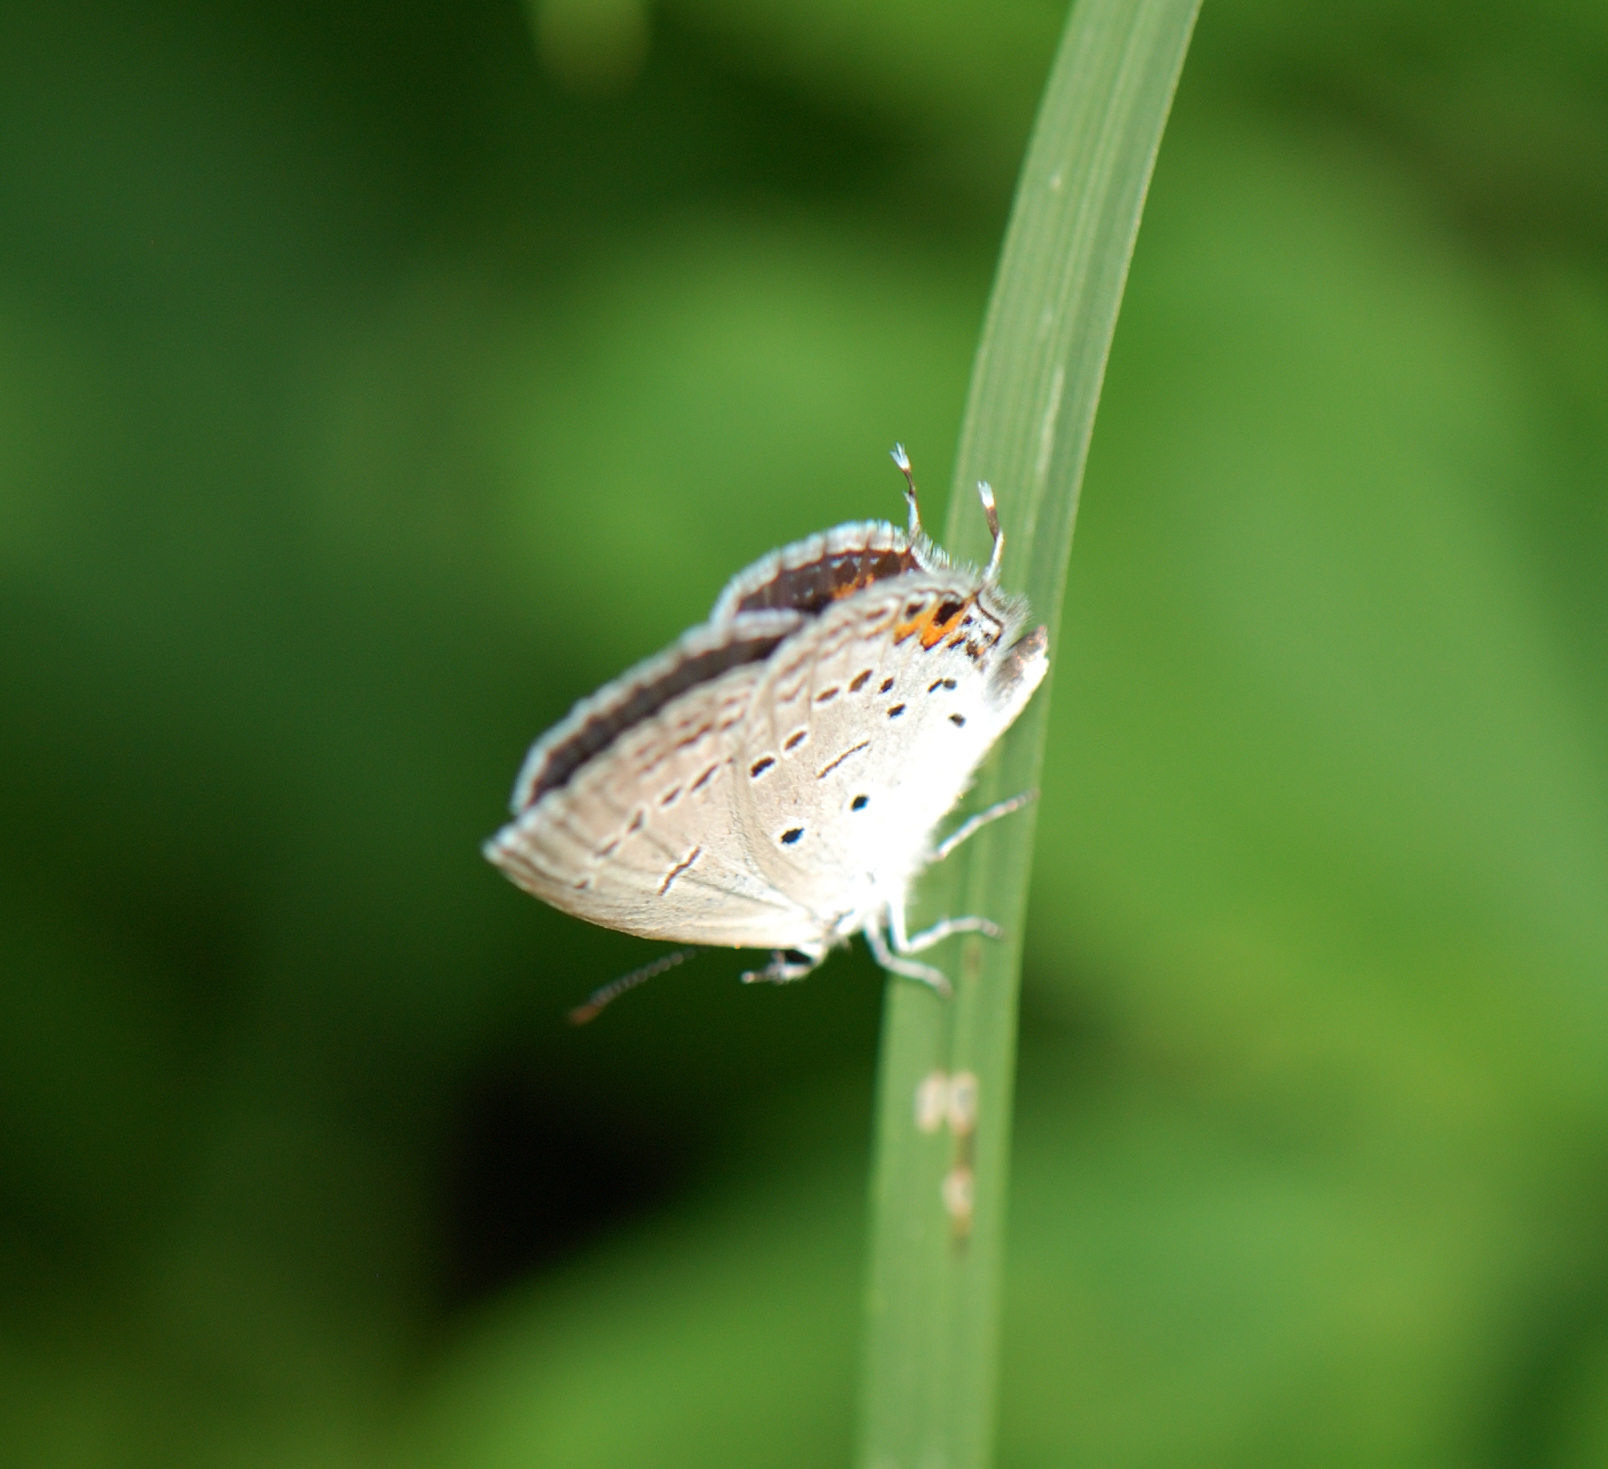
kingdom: Animalia
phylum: Arthropoda
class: Insecta
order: Lepidoptera
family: Lycaenidae
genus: Elkalyce
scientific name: Elkalyce comyntas
